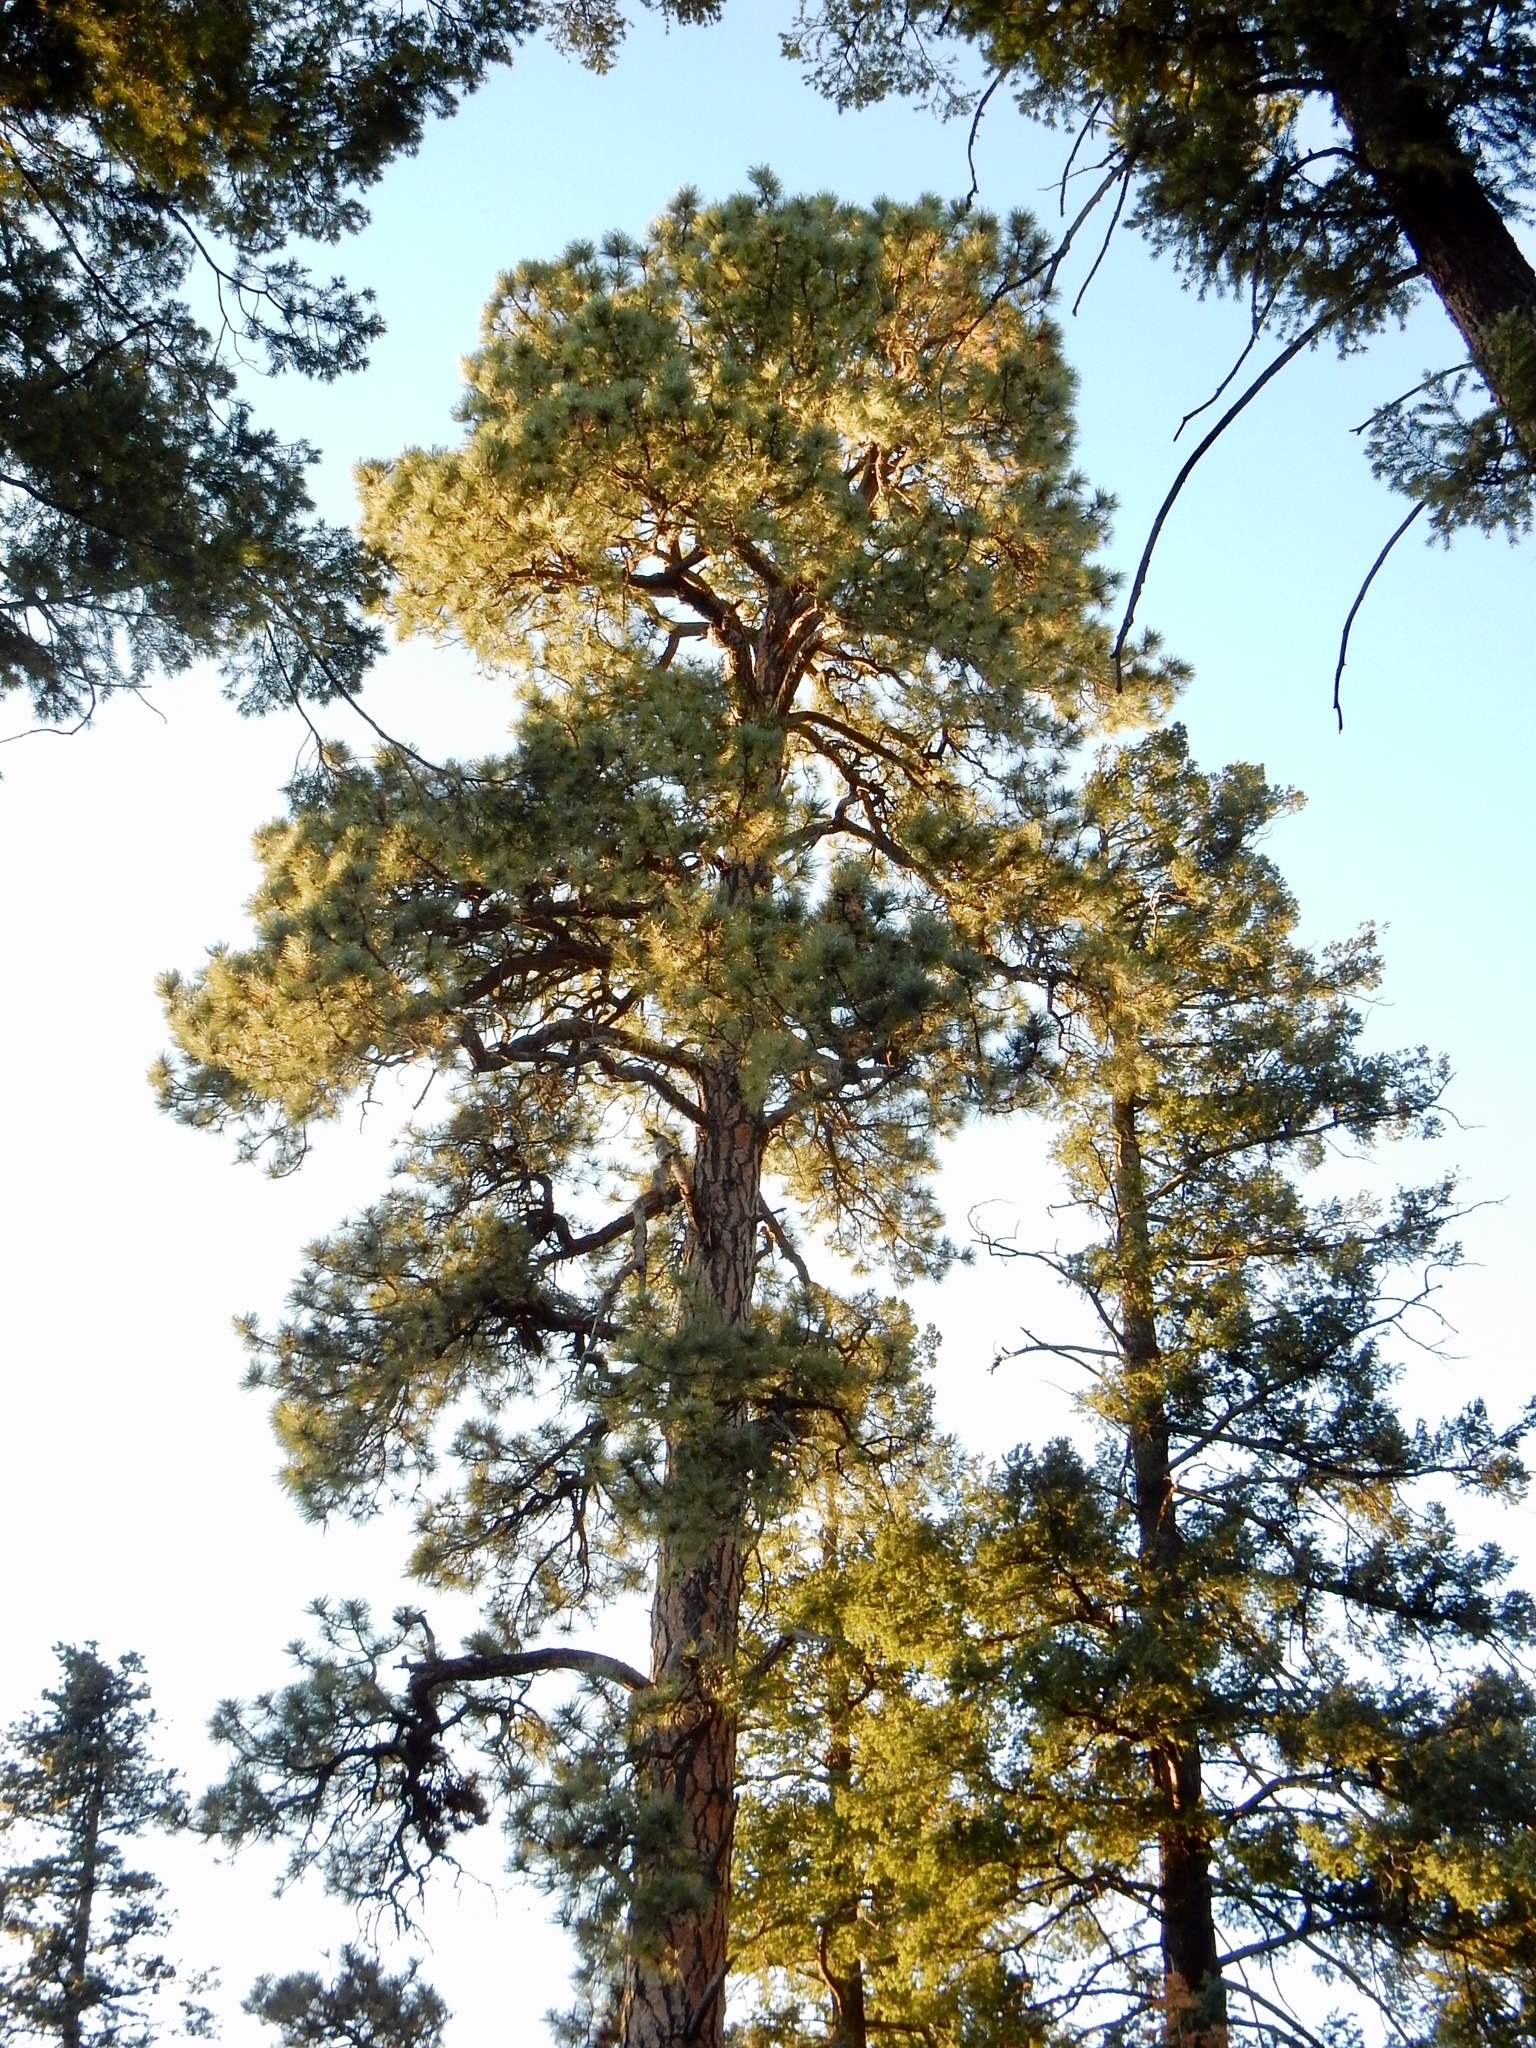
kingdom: Plantae
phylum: Tracheophyta
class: Pinopsida
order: Pinales
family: Pinaceae
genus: Pinus
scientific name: Pinus ponderosa
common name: Western yellow-pine
